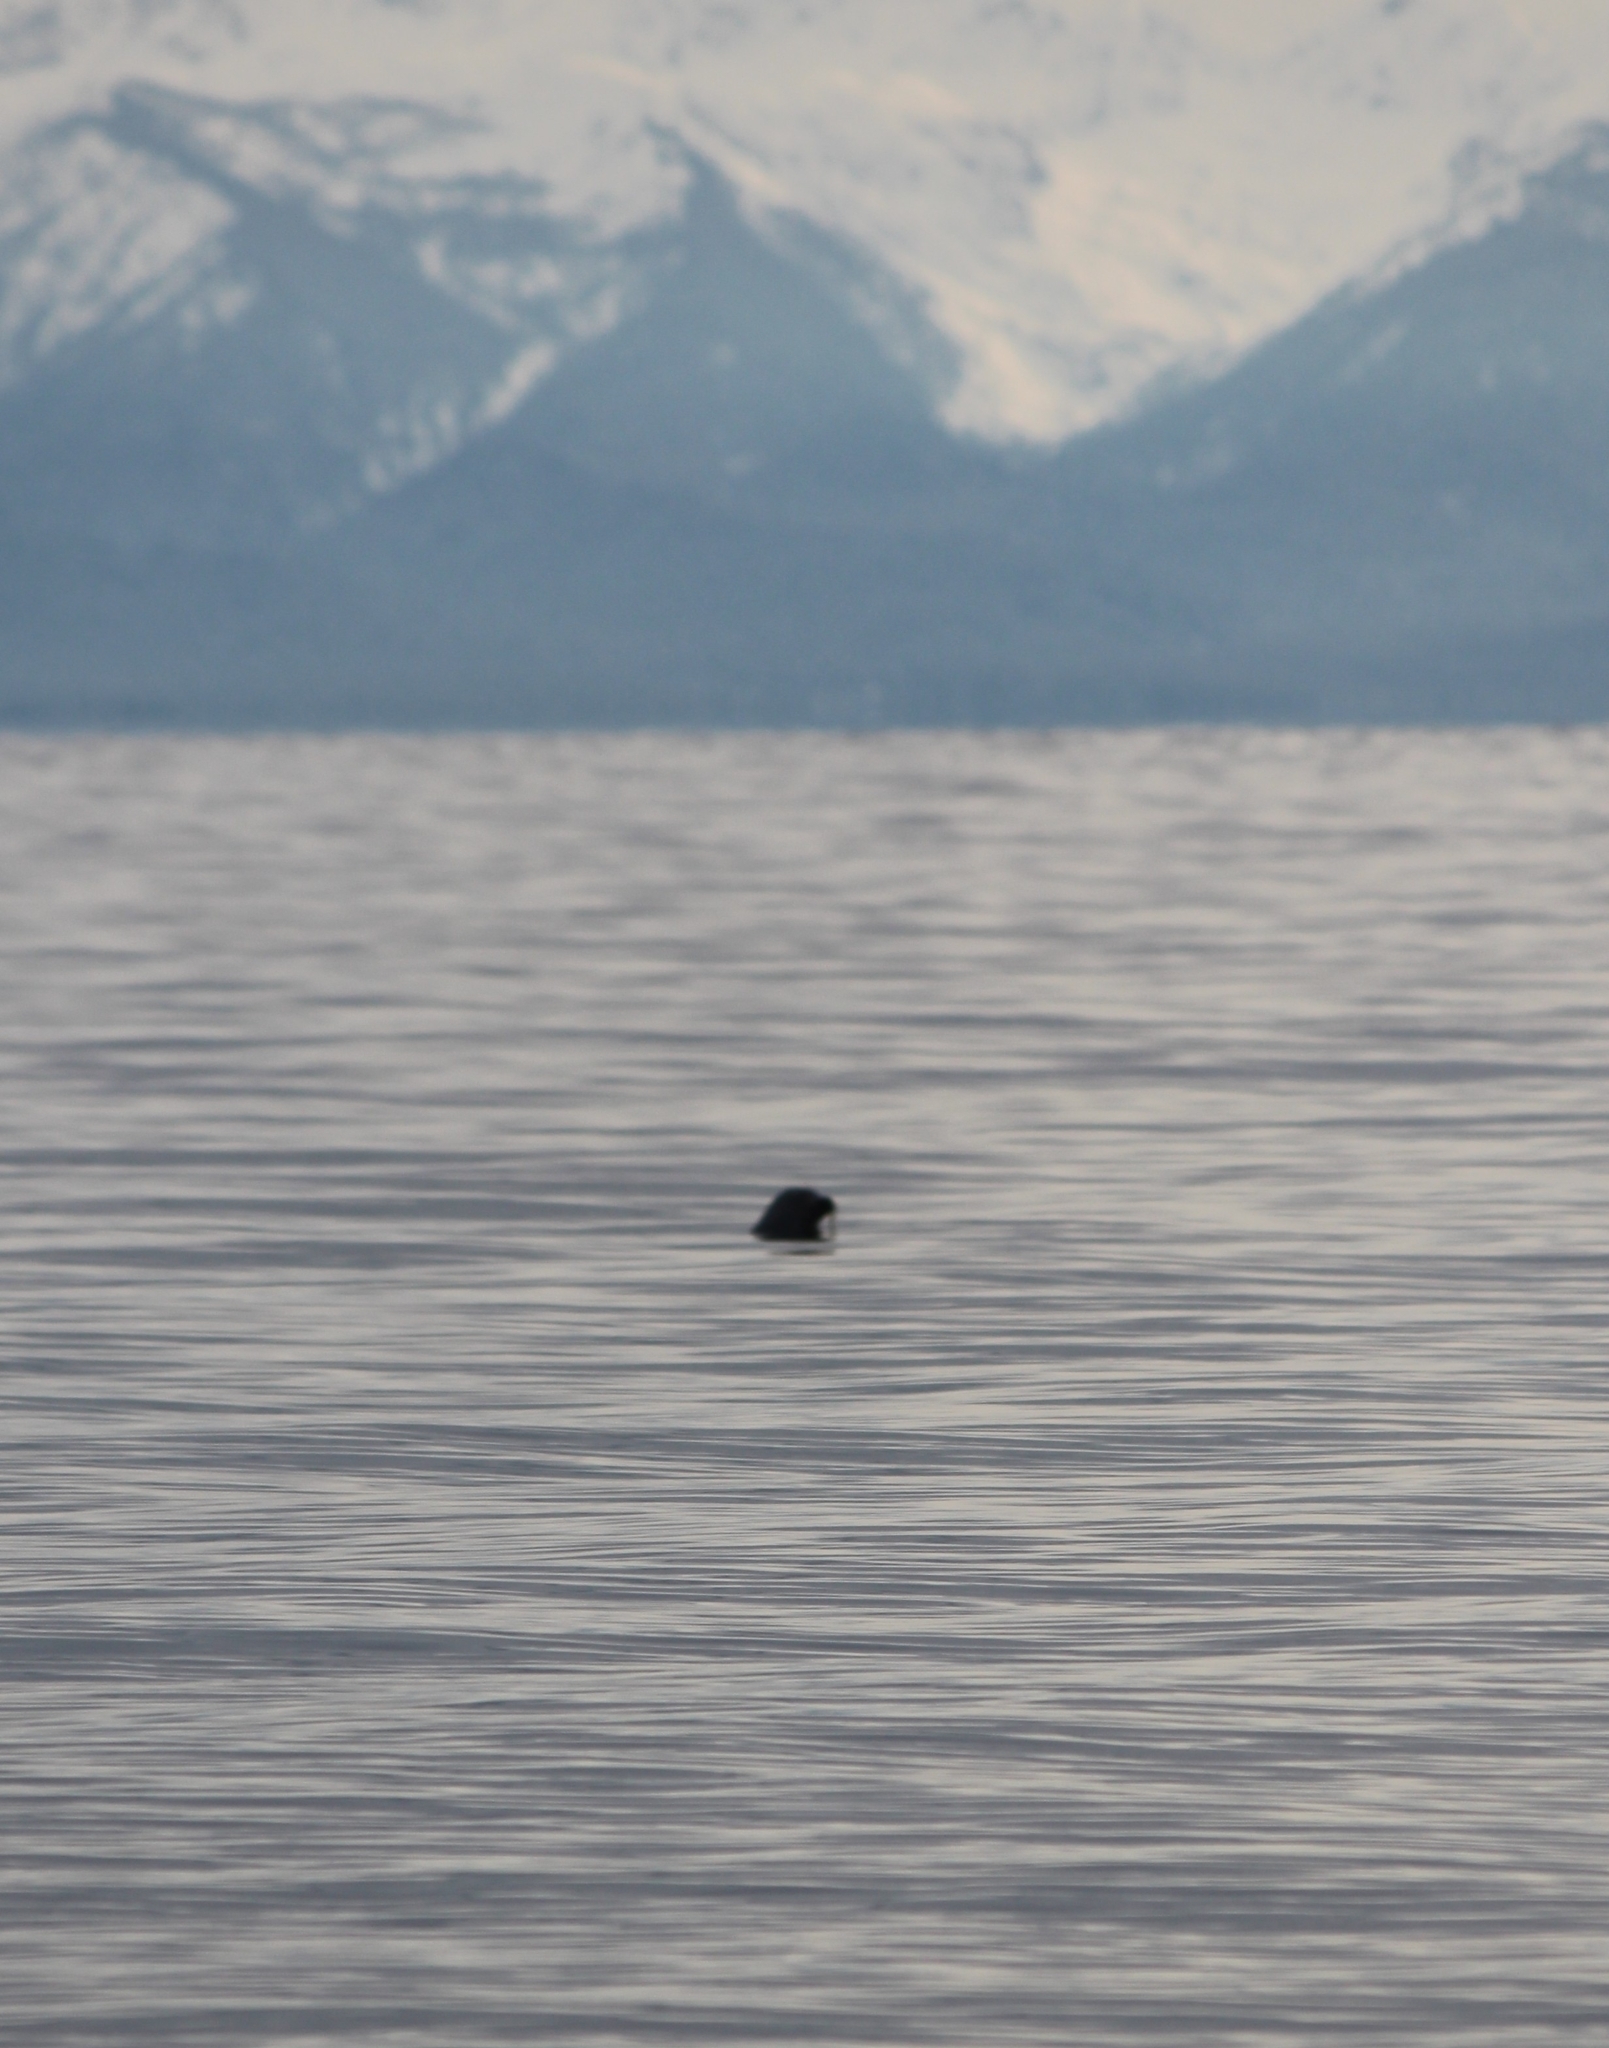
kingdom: Animalia
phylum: Chordata
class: Mammalia
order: Carnivora
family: Phocidae
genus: Pusa
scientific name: Pusa sibirica
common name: Baikal seal
